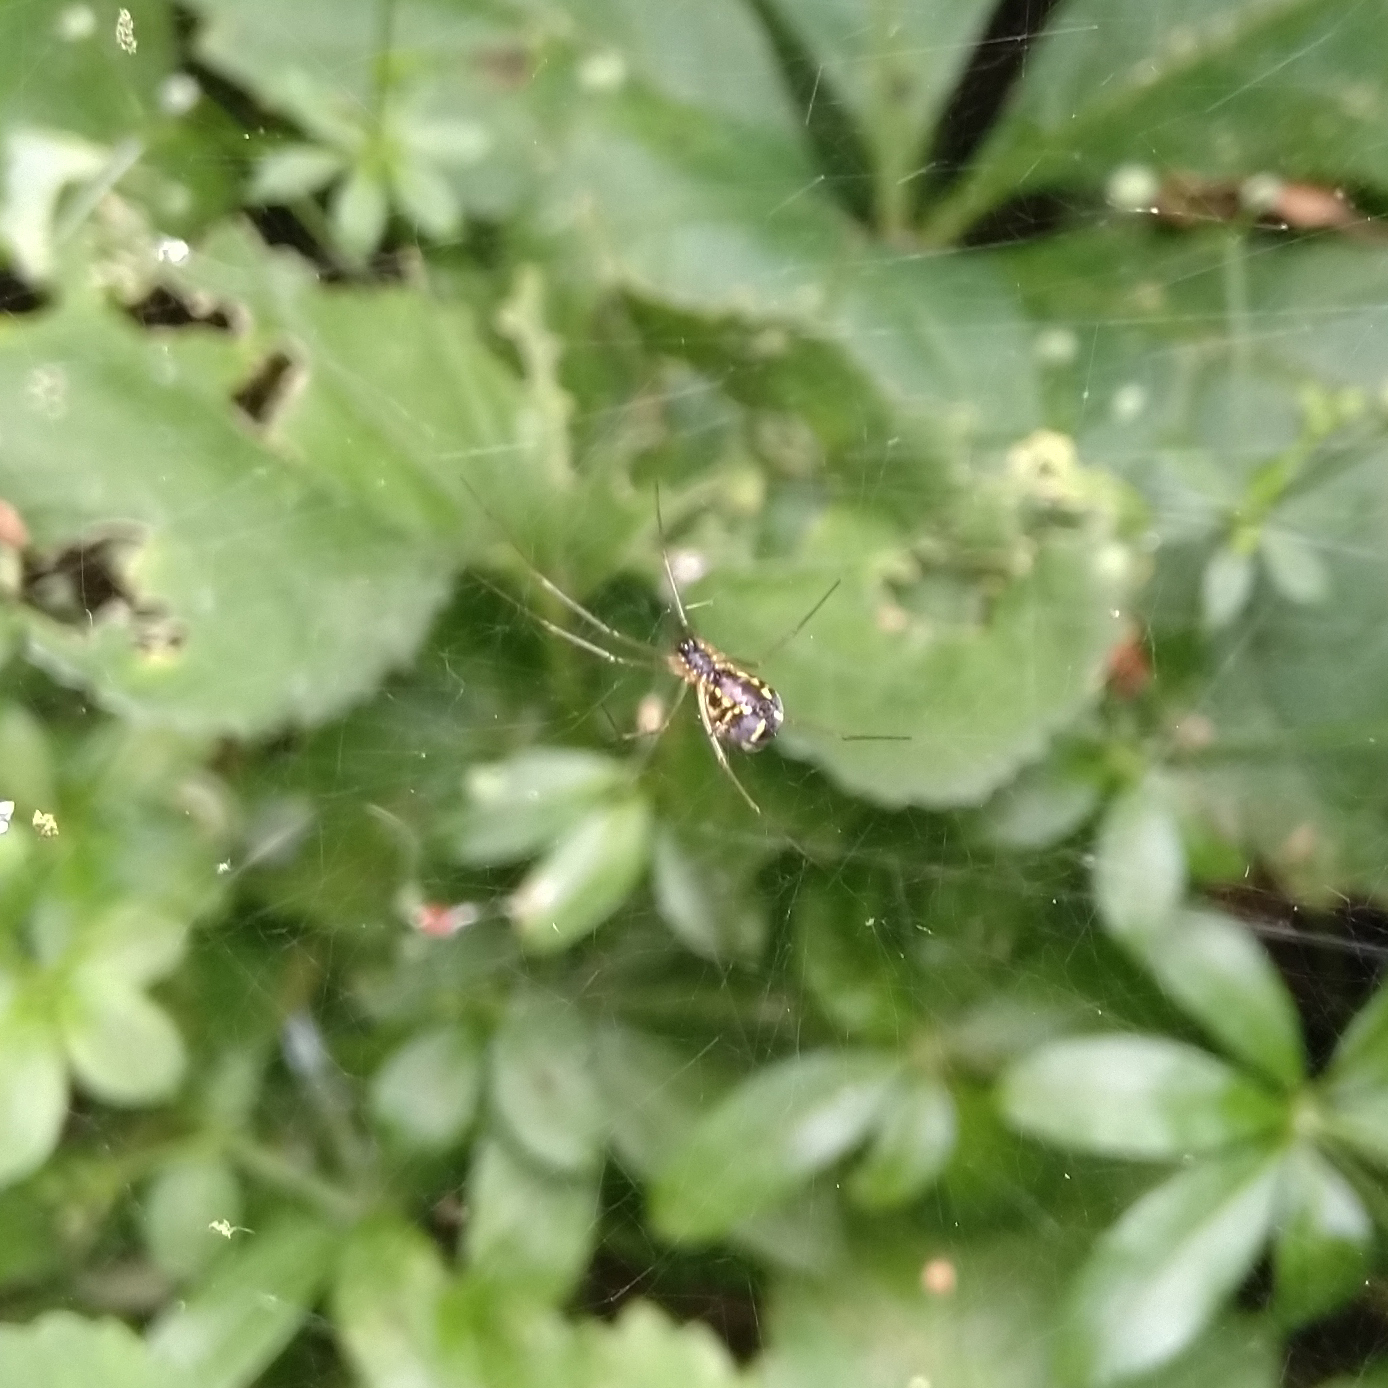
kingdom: Animalia
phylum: Arthropoda
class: Arachnida
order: Araneae
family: Linyphiidae
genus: Neriene
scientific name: Neriene radiata
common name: Filmy dome spider
